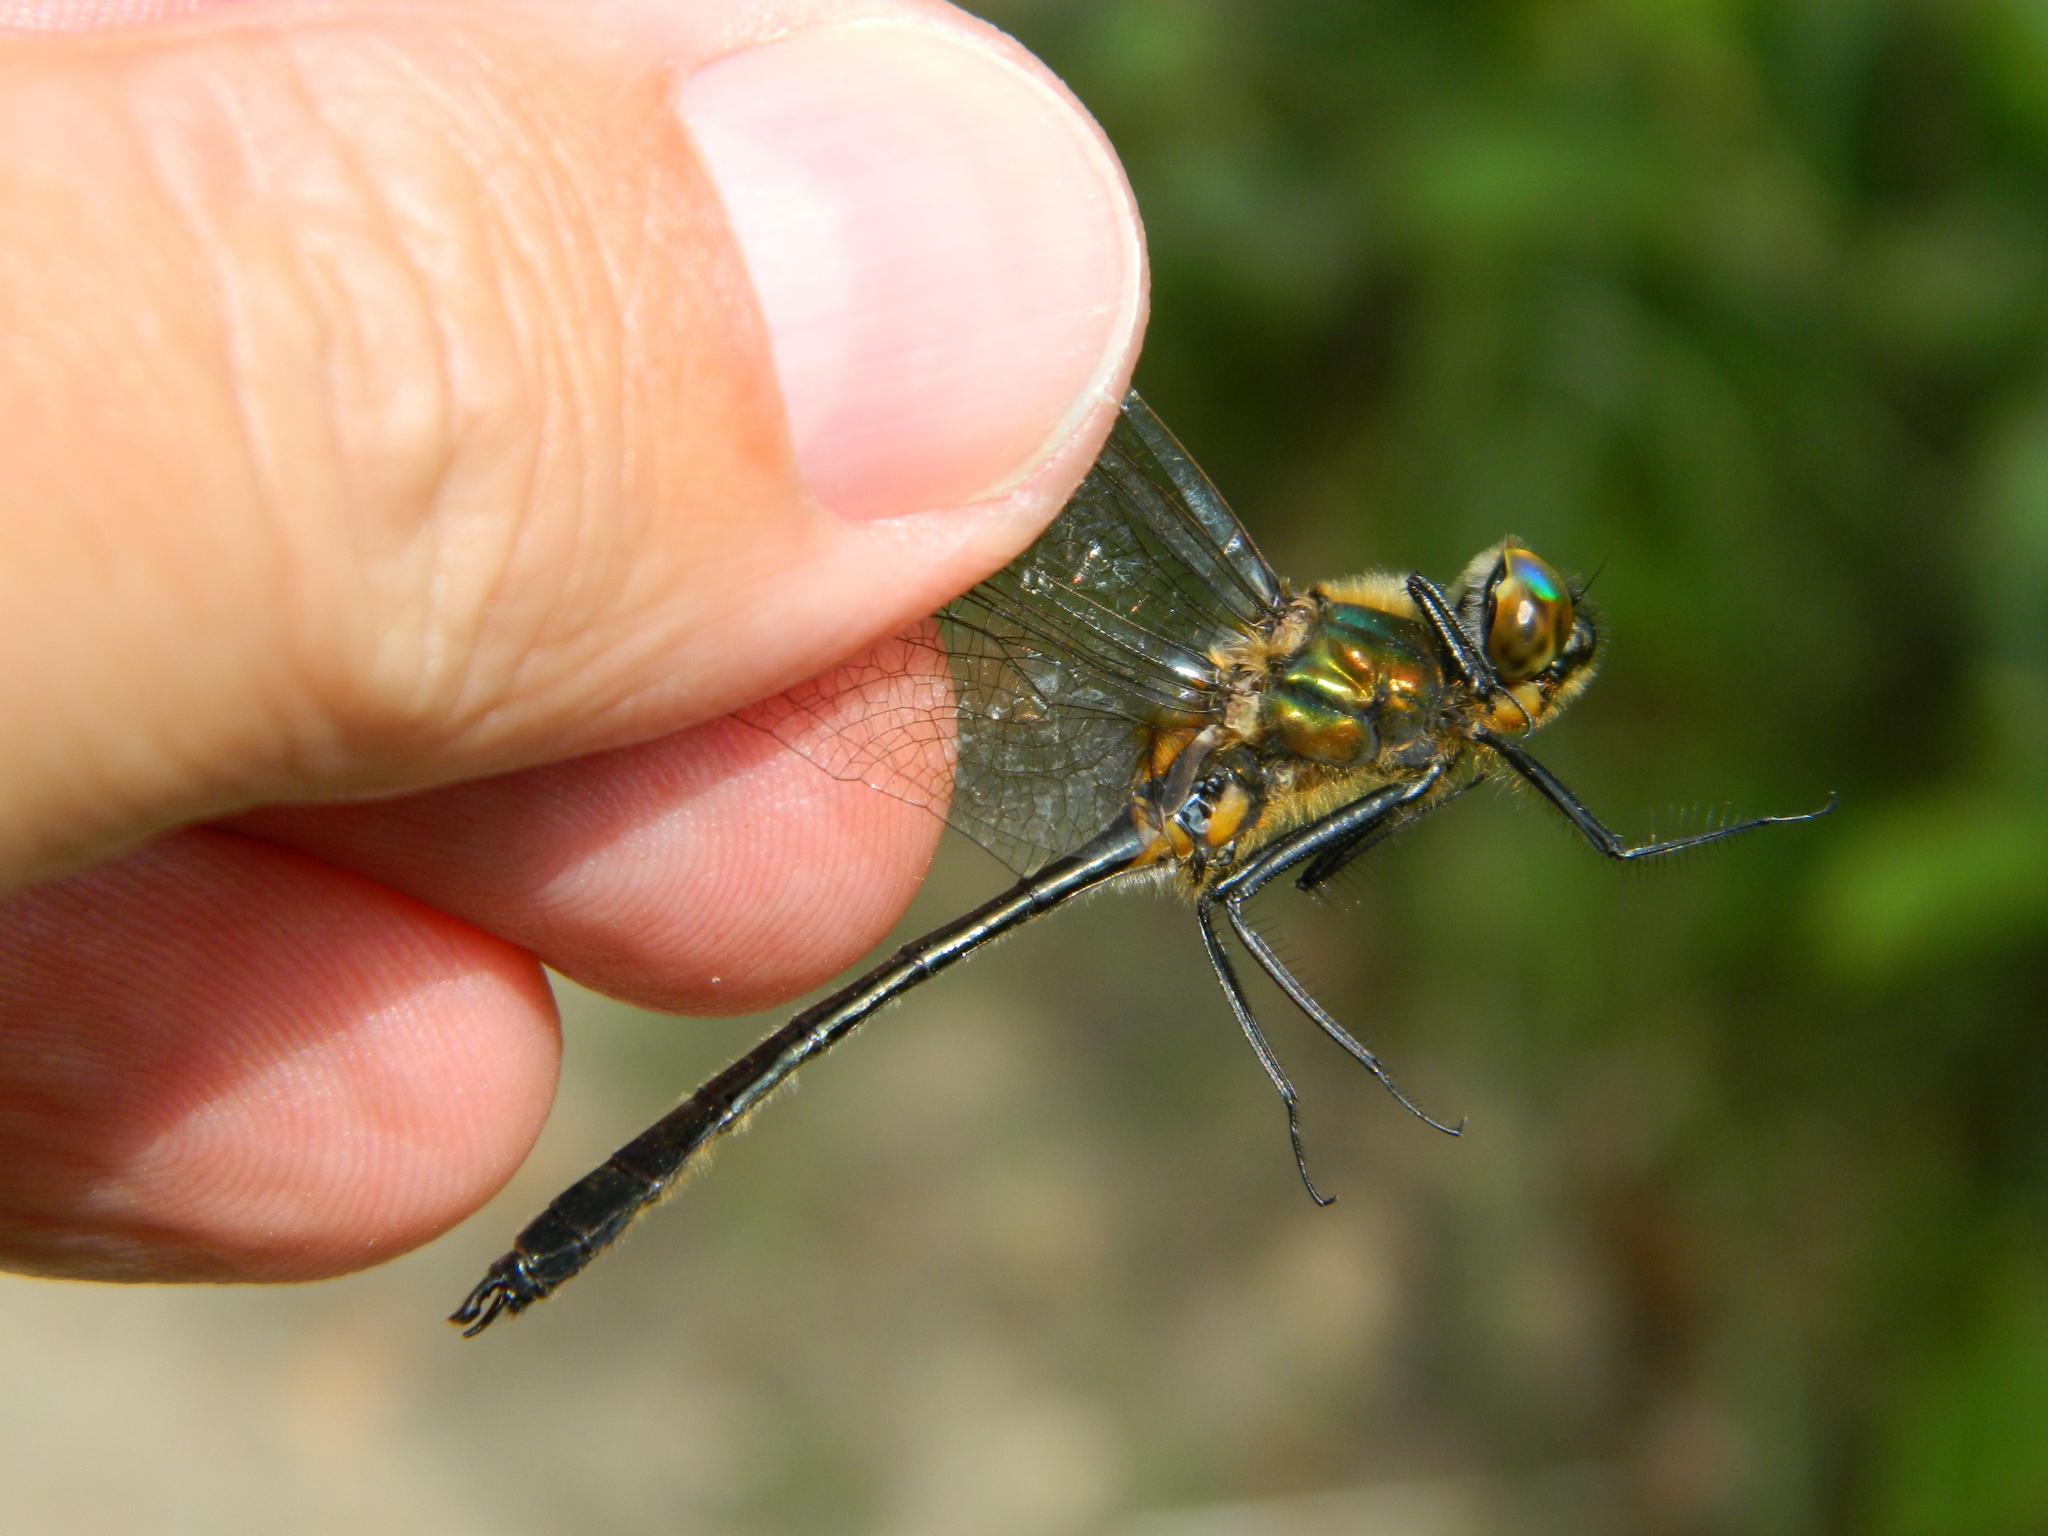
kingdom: Animalia
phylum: Arthropoda
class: Insecta
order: Odonata
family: Corduliidae
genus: Dorocordulia
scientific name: Dorocordulia libera
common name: Racket-tailed emerald
